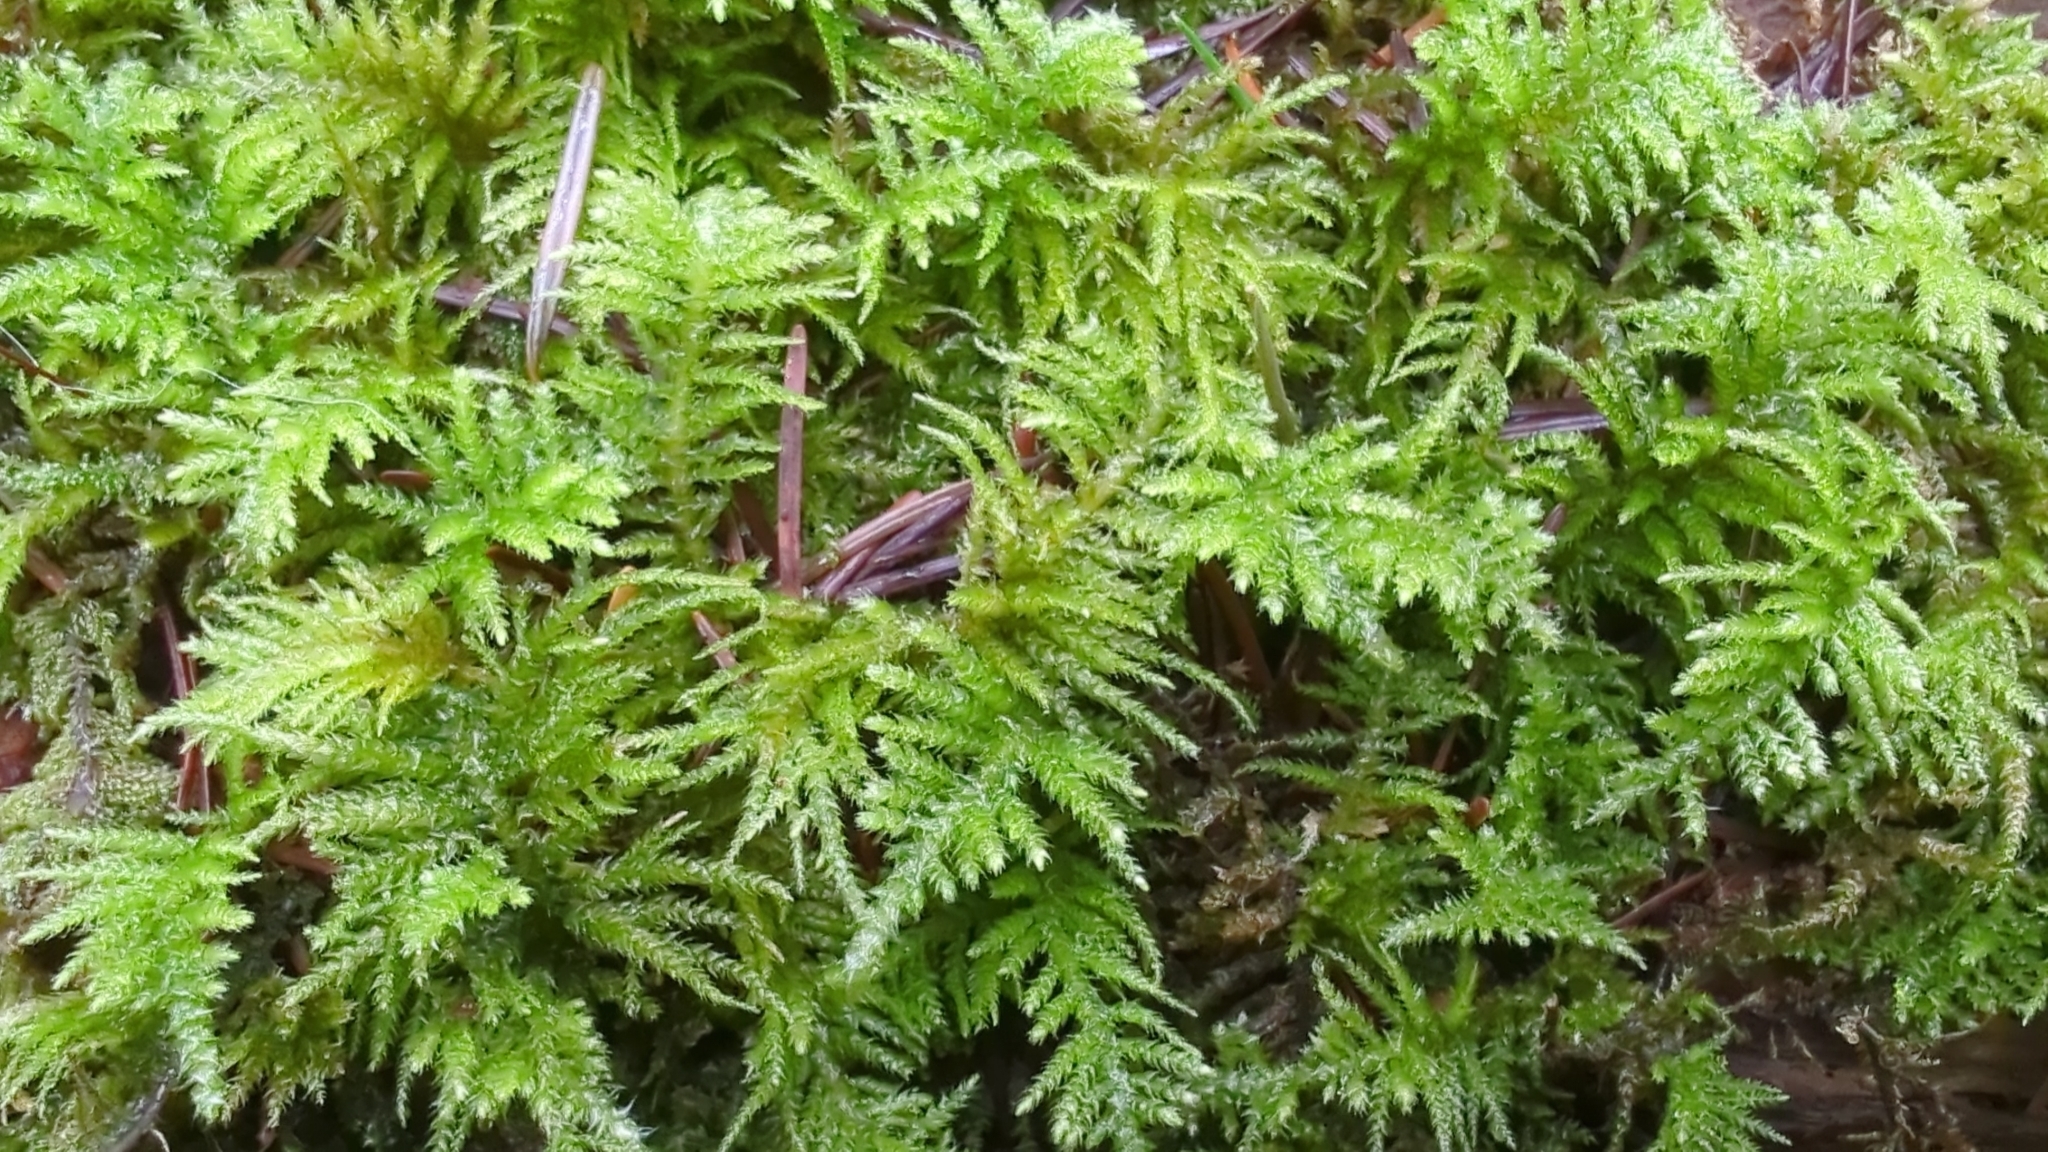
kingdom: Plantae
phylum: Bryophyta
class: Bryopsida
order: Hypnales
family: Brachytheciaceae
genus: Kindbergia
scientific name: Kindbergia oregana
